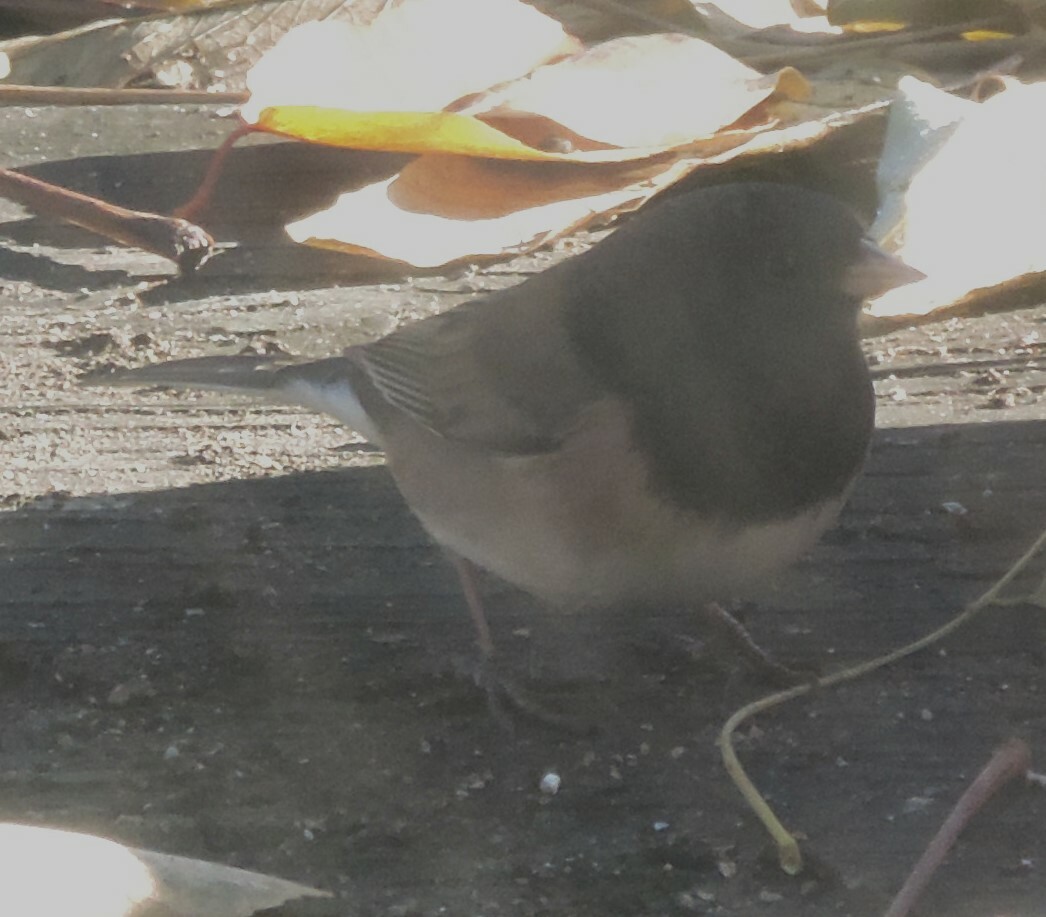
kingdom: Animalia
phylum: Chordata
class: Aves
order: Passeriformes
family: Passerellidae
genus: Junco
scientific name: Junco hyemalis
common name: Dark-eyed junco
